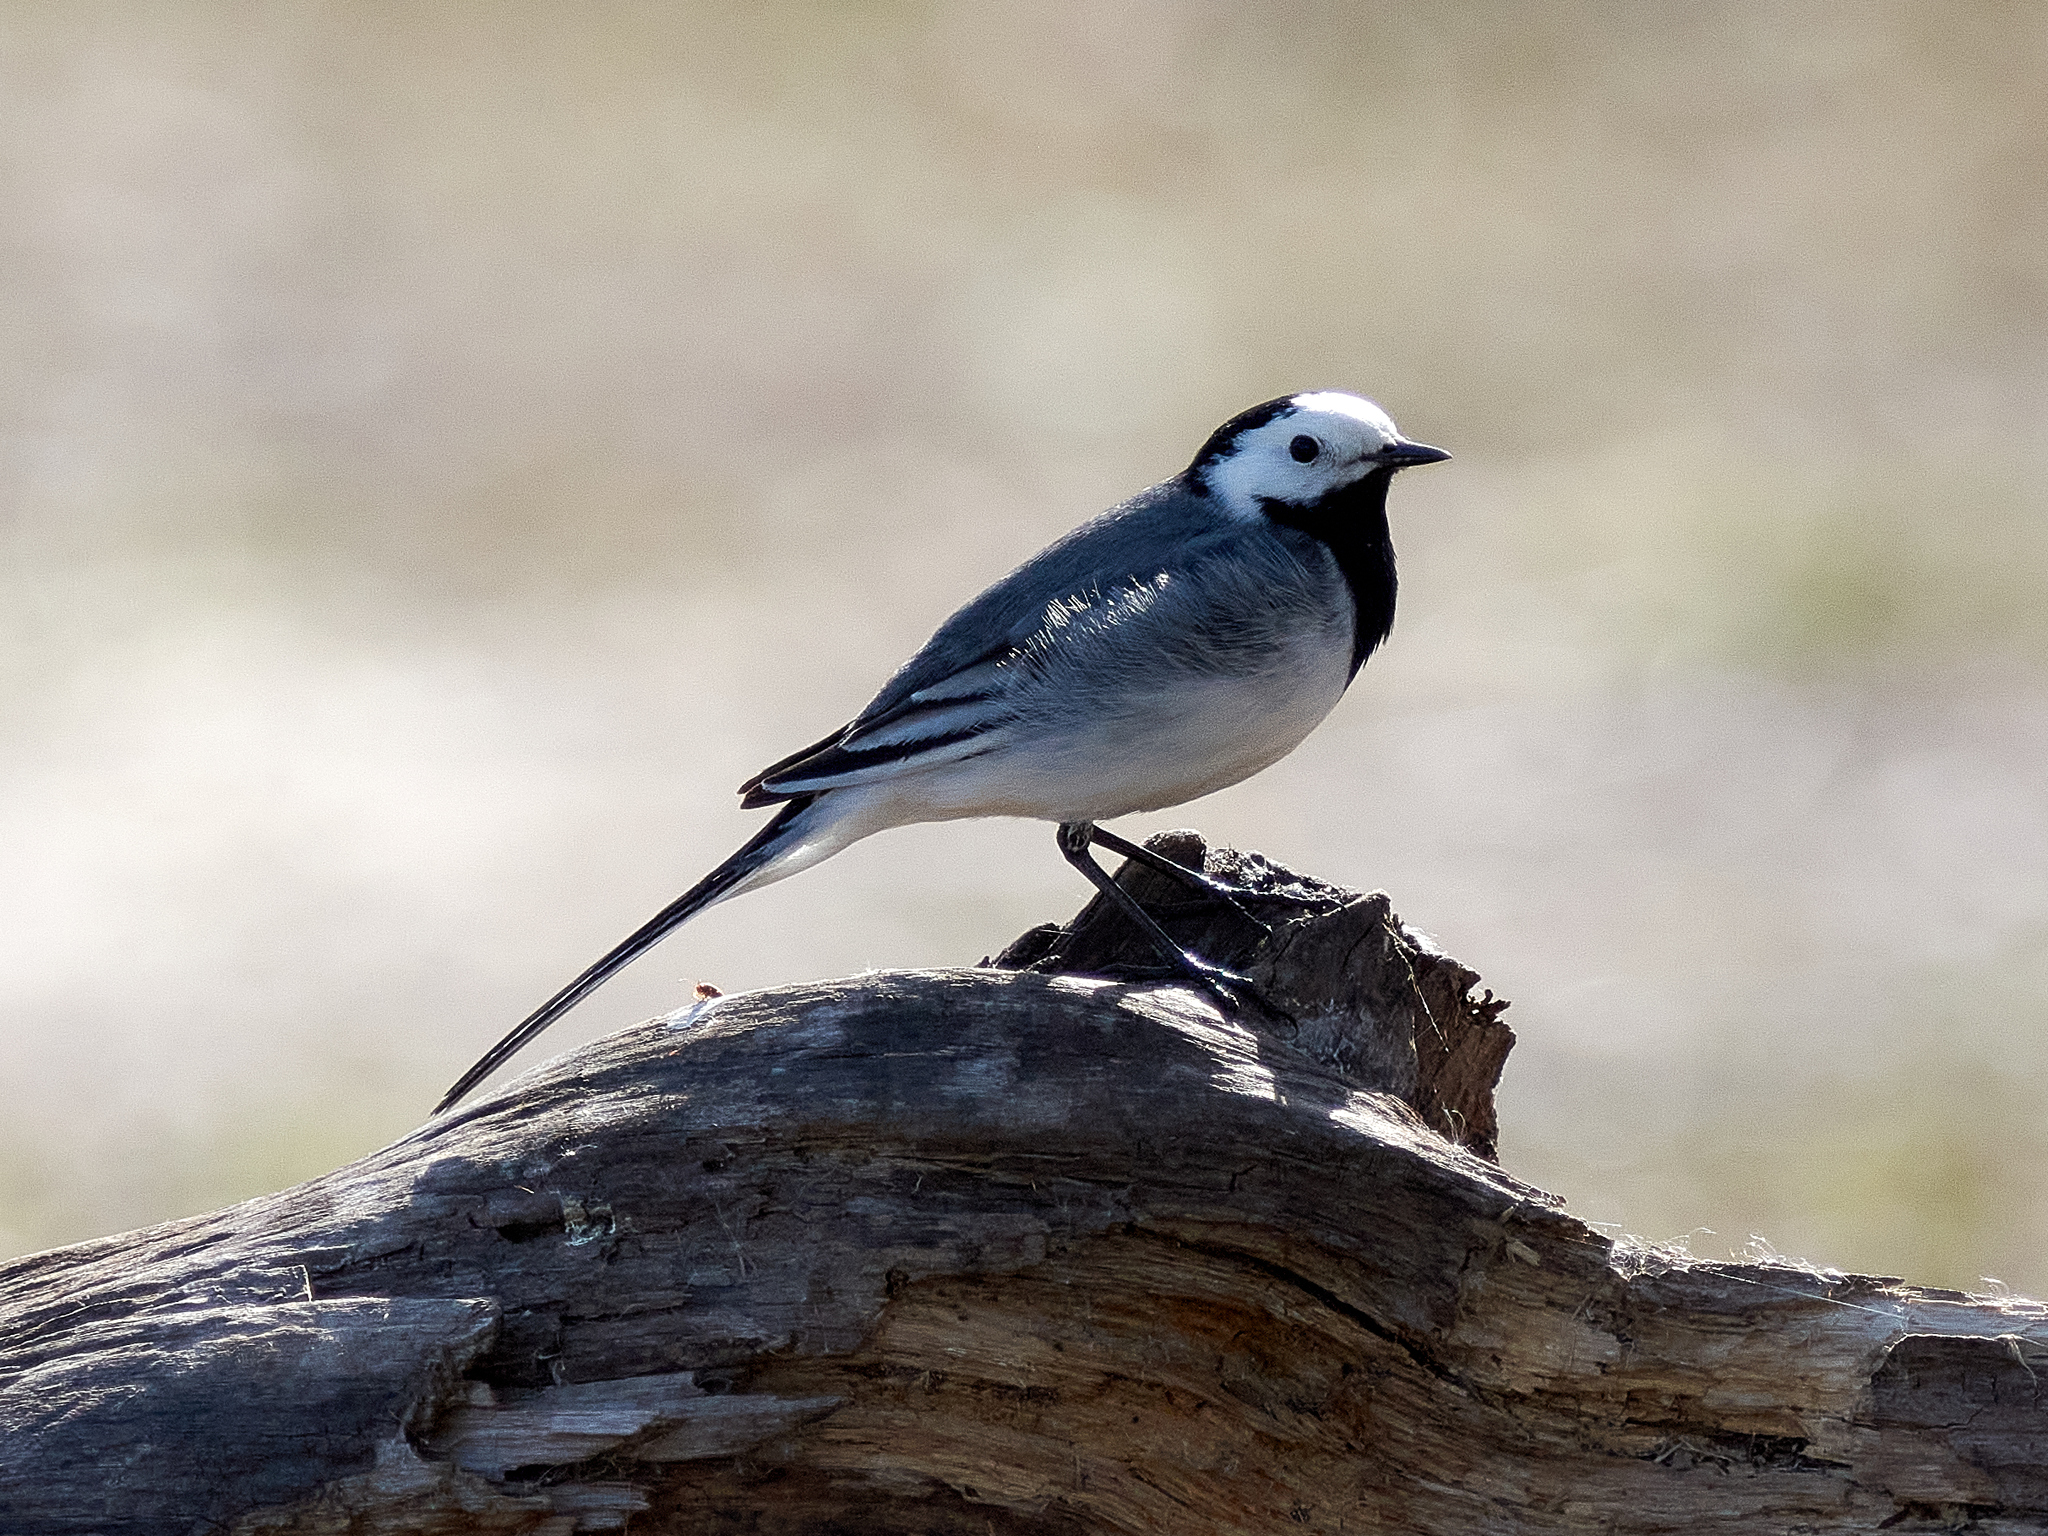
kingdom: Animalia
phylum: Chordata
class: Aves
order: Passeriformes
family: Motacillidae
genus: Motacilla
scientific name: Motacilla alba
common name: White wagtail
